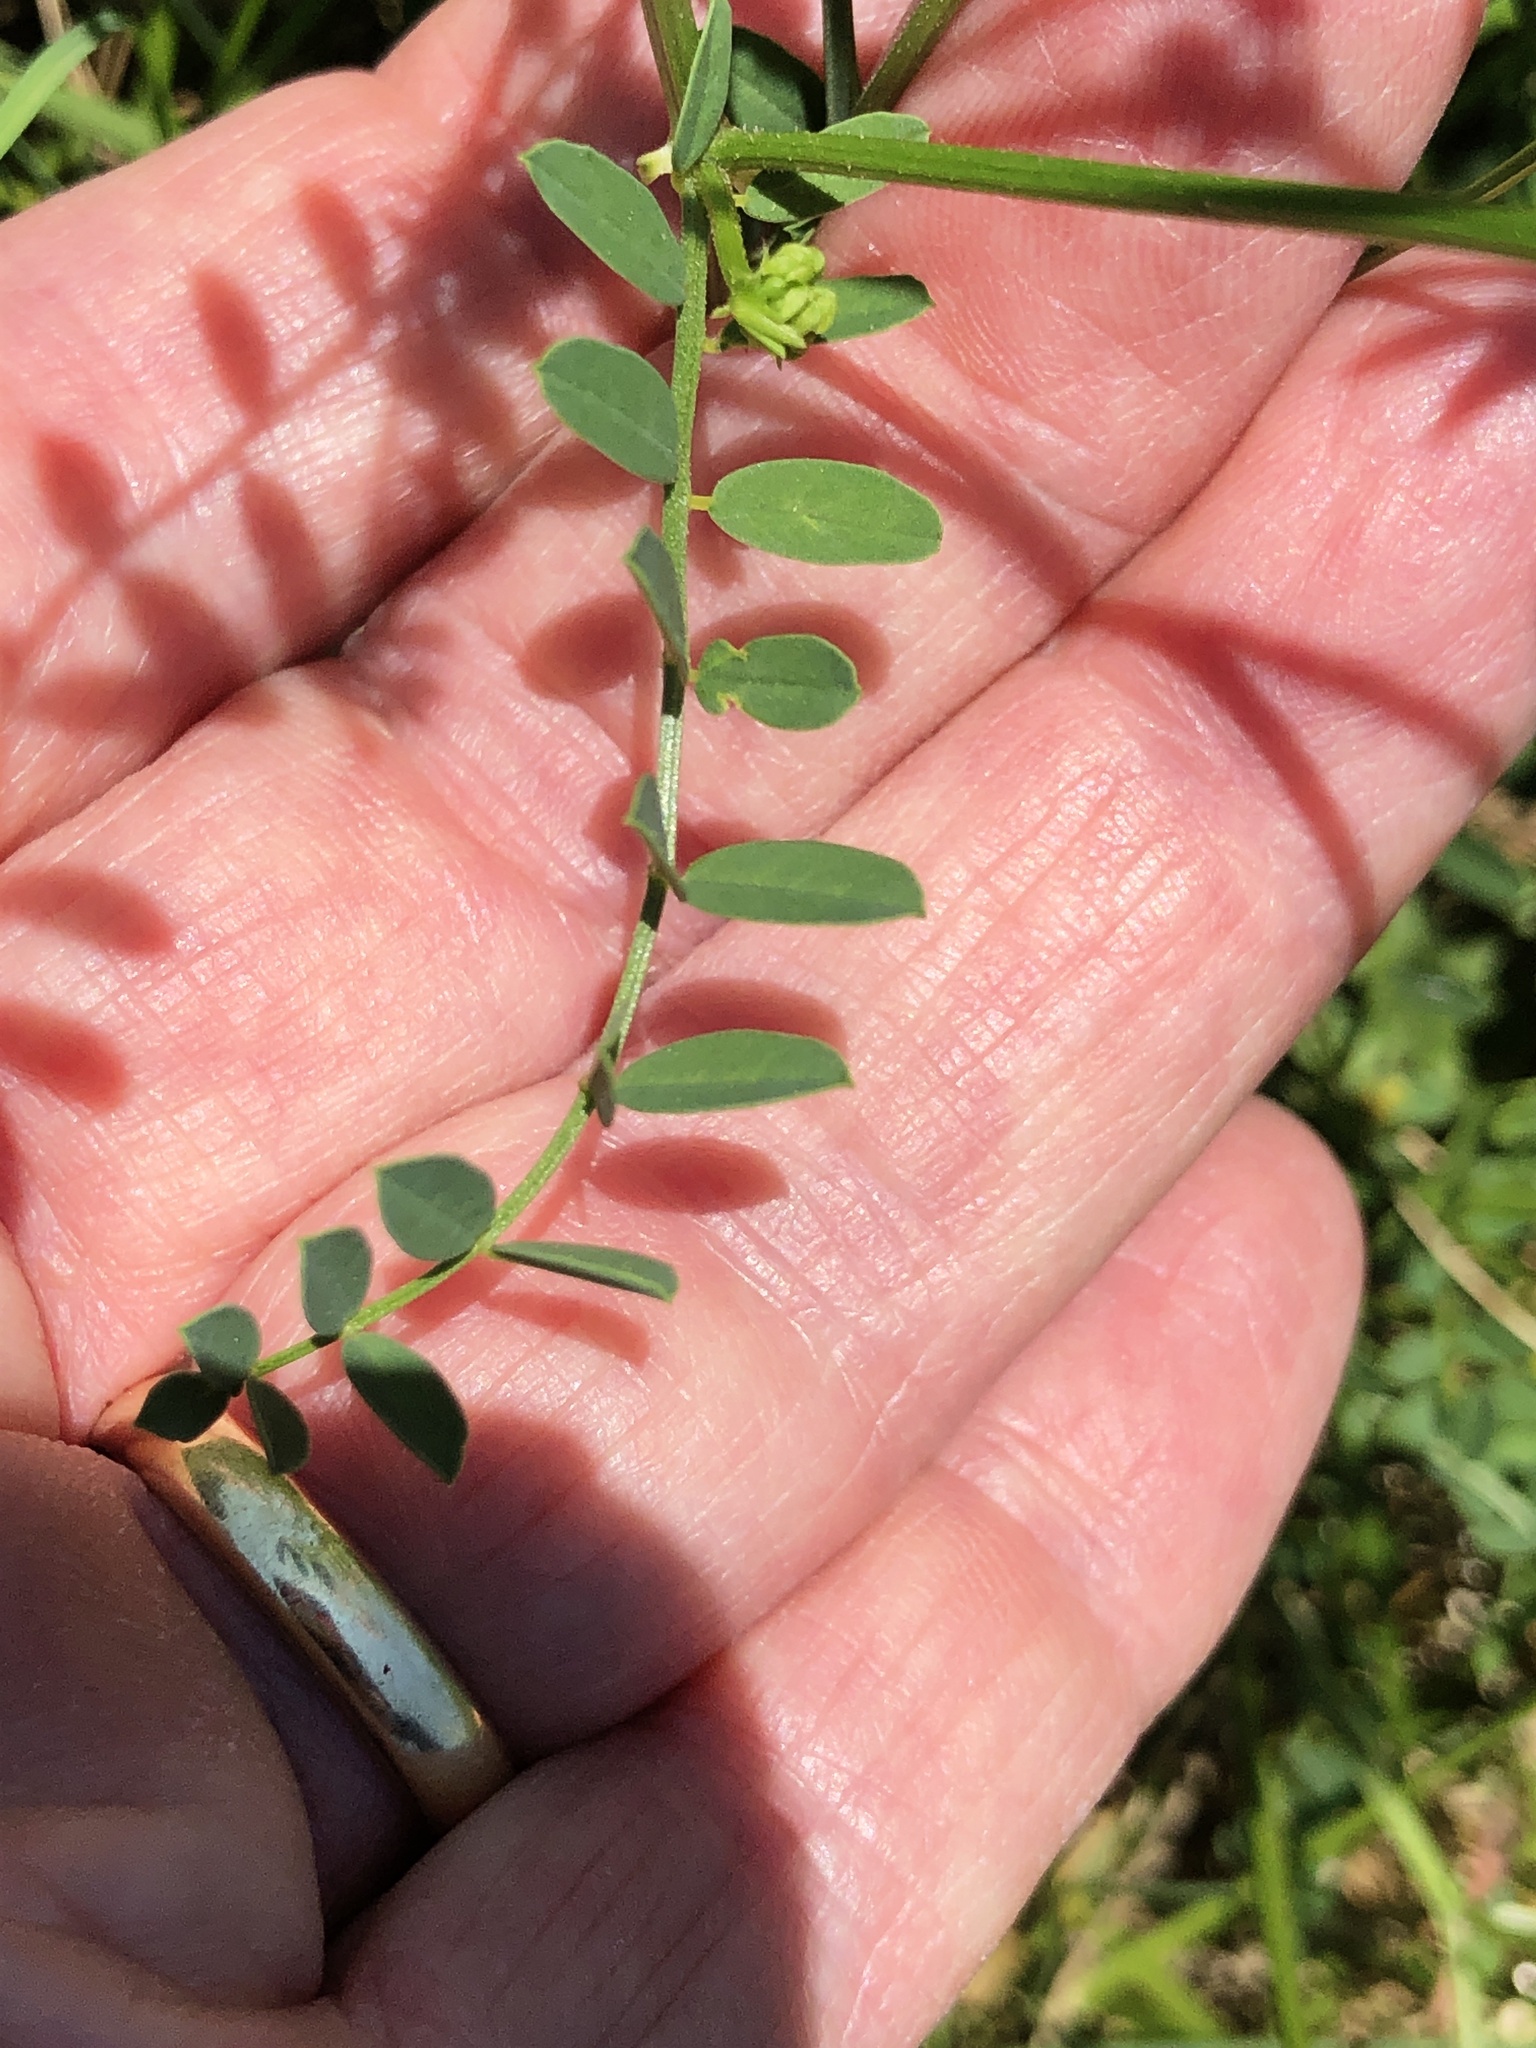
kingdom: Plantae
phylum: Tracheophyta
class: Magnoliopsida
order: Fabales
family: Fabaceae
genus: Coronilla
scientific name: Coronilla varia
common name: Crownvetch
